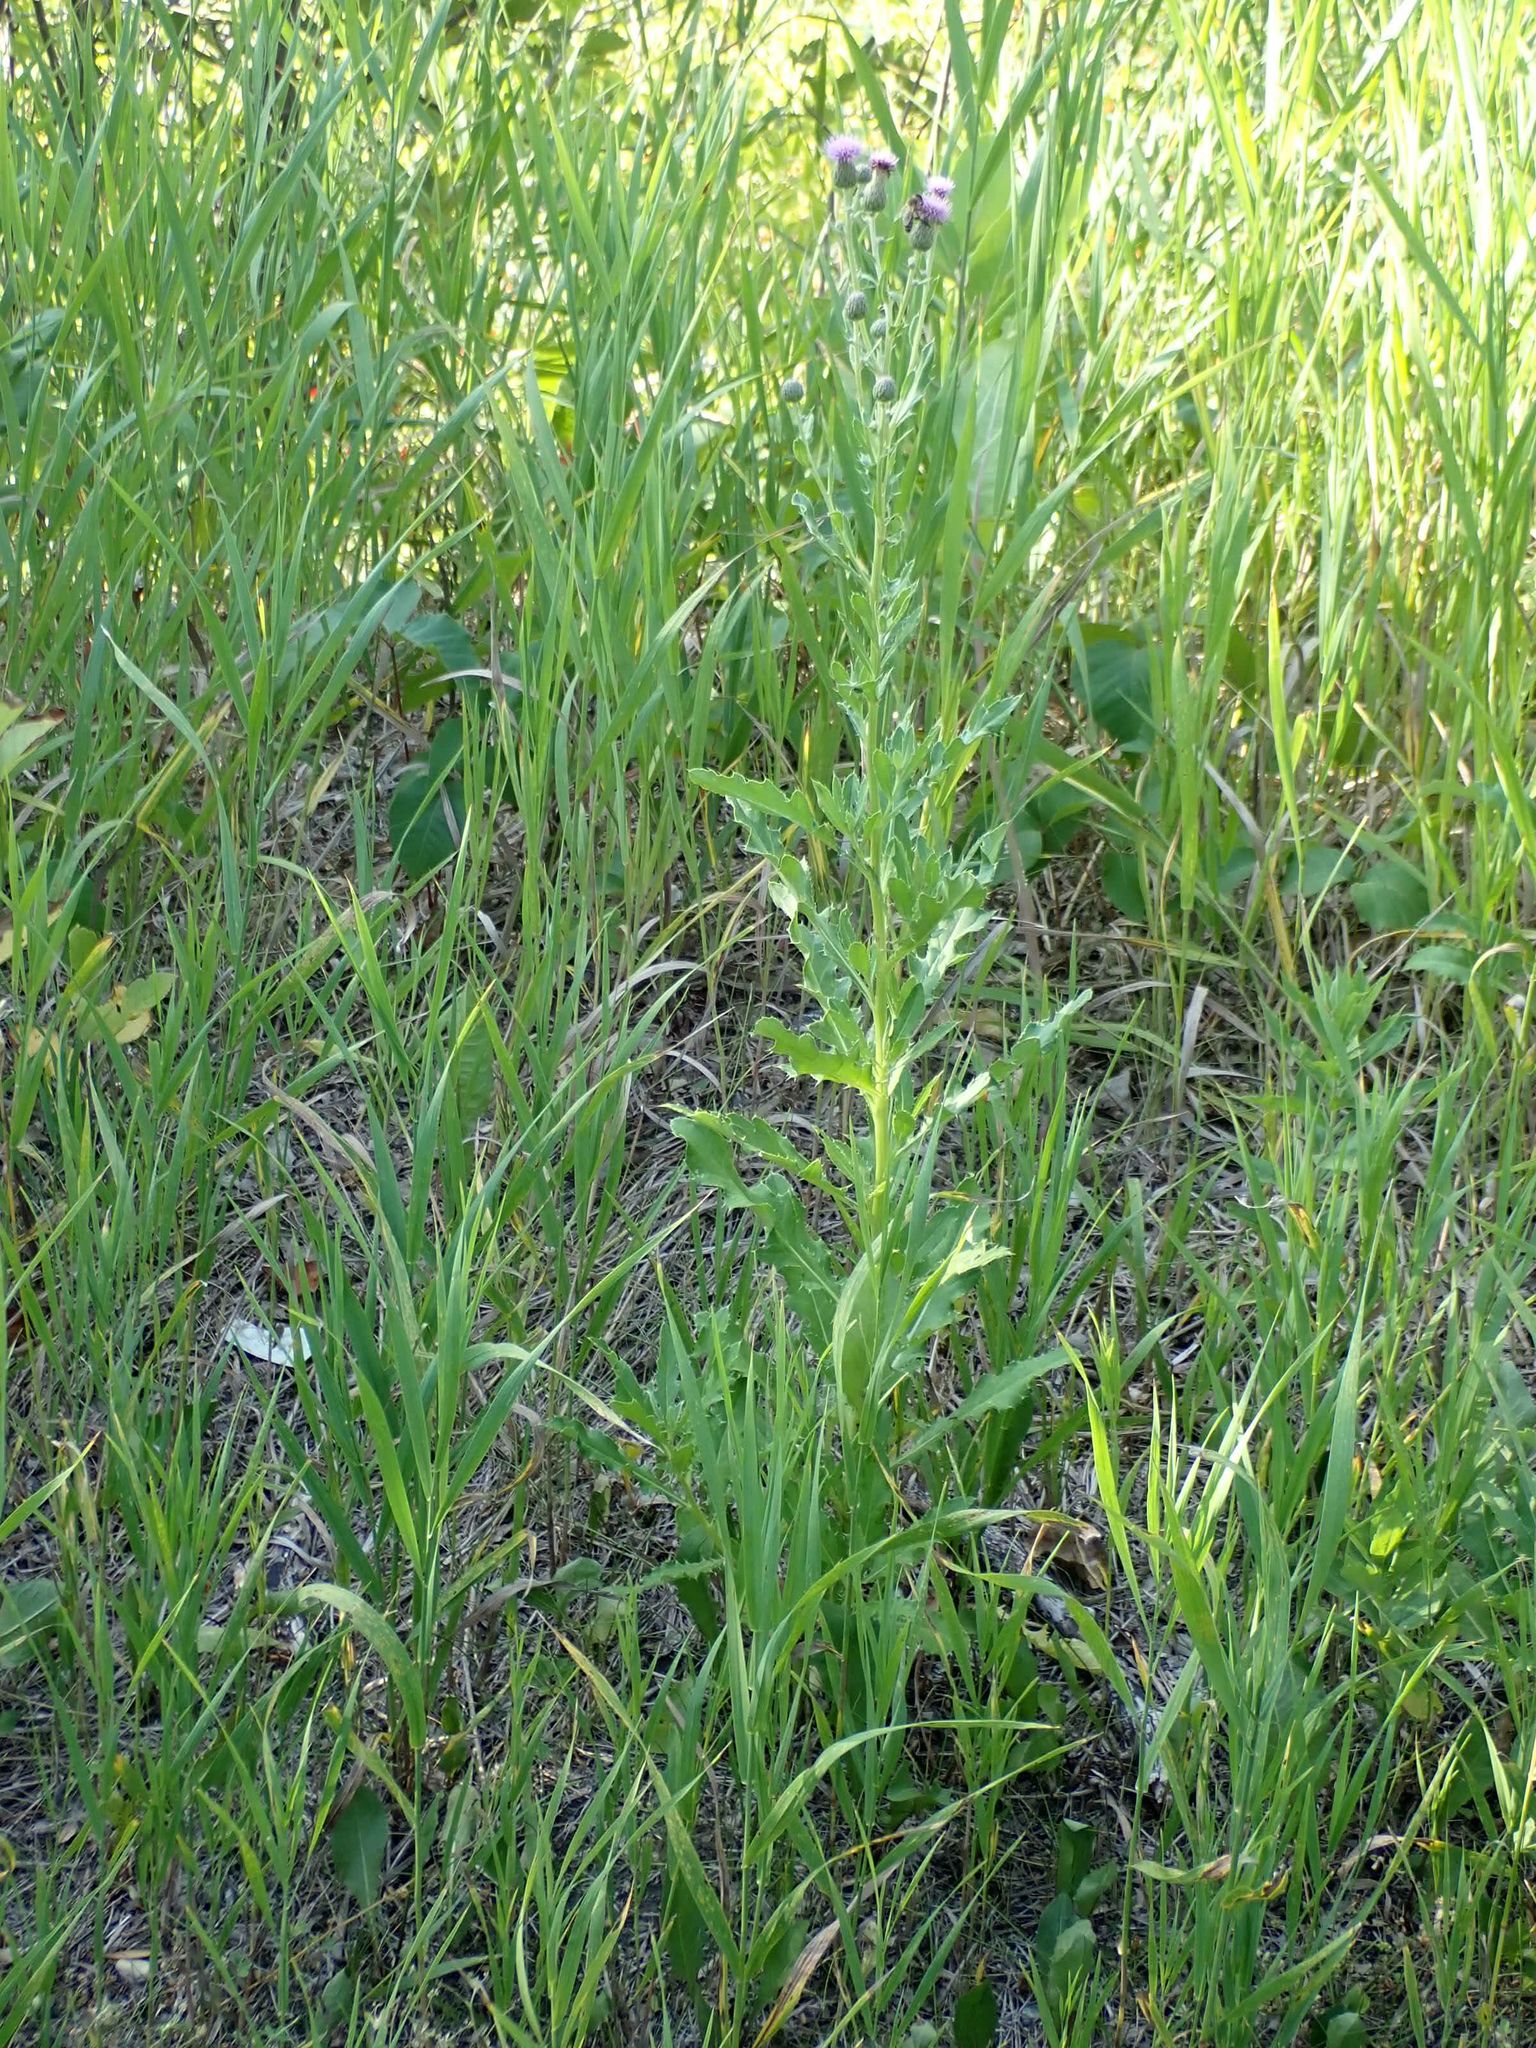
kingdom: Plantae
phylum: Tracheophyta
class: Magnoliopsida
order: Asterales
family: Asteraceae
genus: Cirsium
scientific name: Cirsium arvense
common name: Creeping thistle
